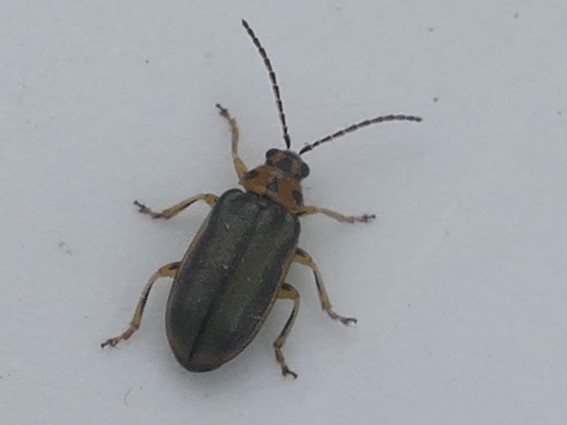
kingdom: Animalia
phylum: Arthropoda
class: Insecta
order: Coleoptera
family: Chrysomelidae
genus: Xanthogaleruca
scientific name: Xanthogaleruca luteola
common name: Elm leaf beetle
